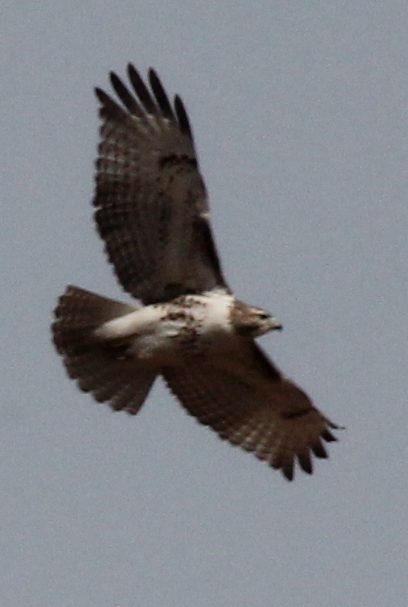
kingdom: Animalia
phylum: Chordata
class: Aves
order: Accipitriformes
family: Accipitridae
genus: Buteo
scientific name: Buteo jamaicensis
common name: Red-tailed hawk
